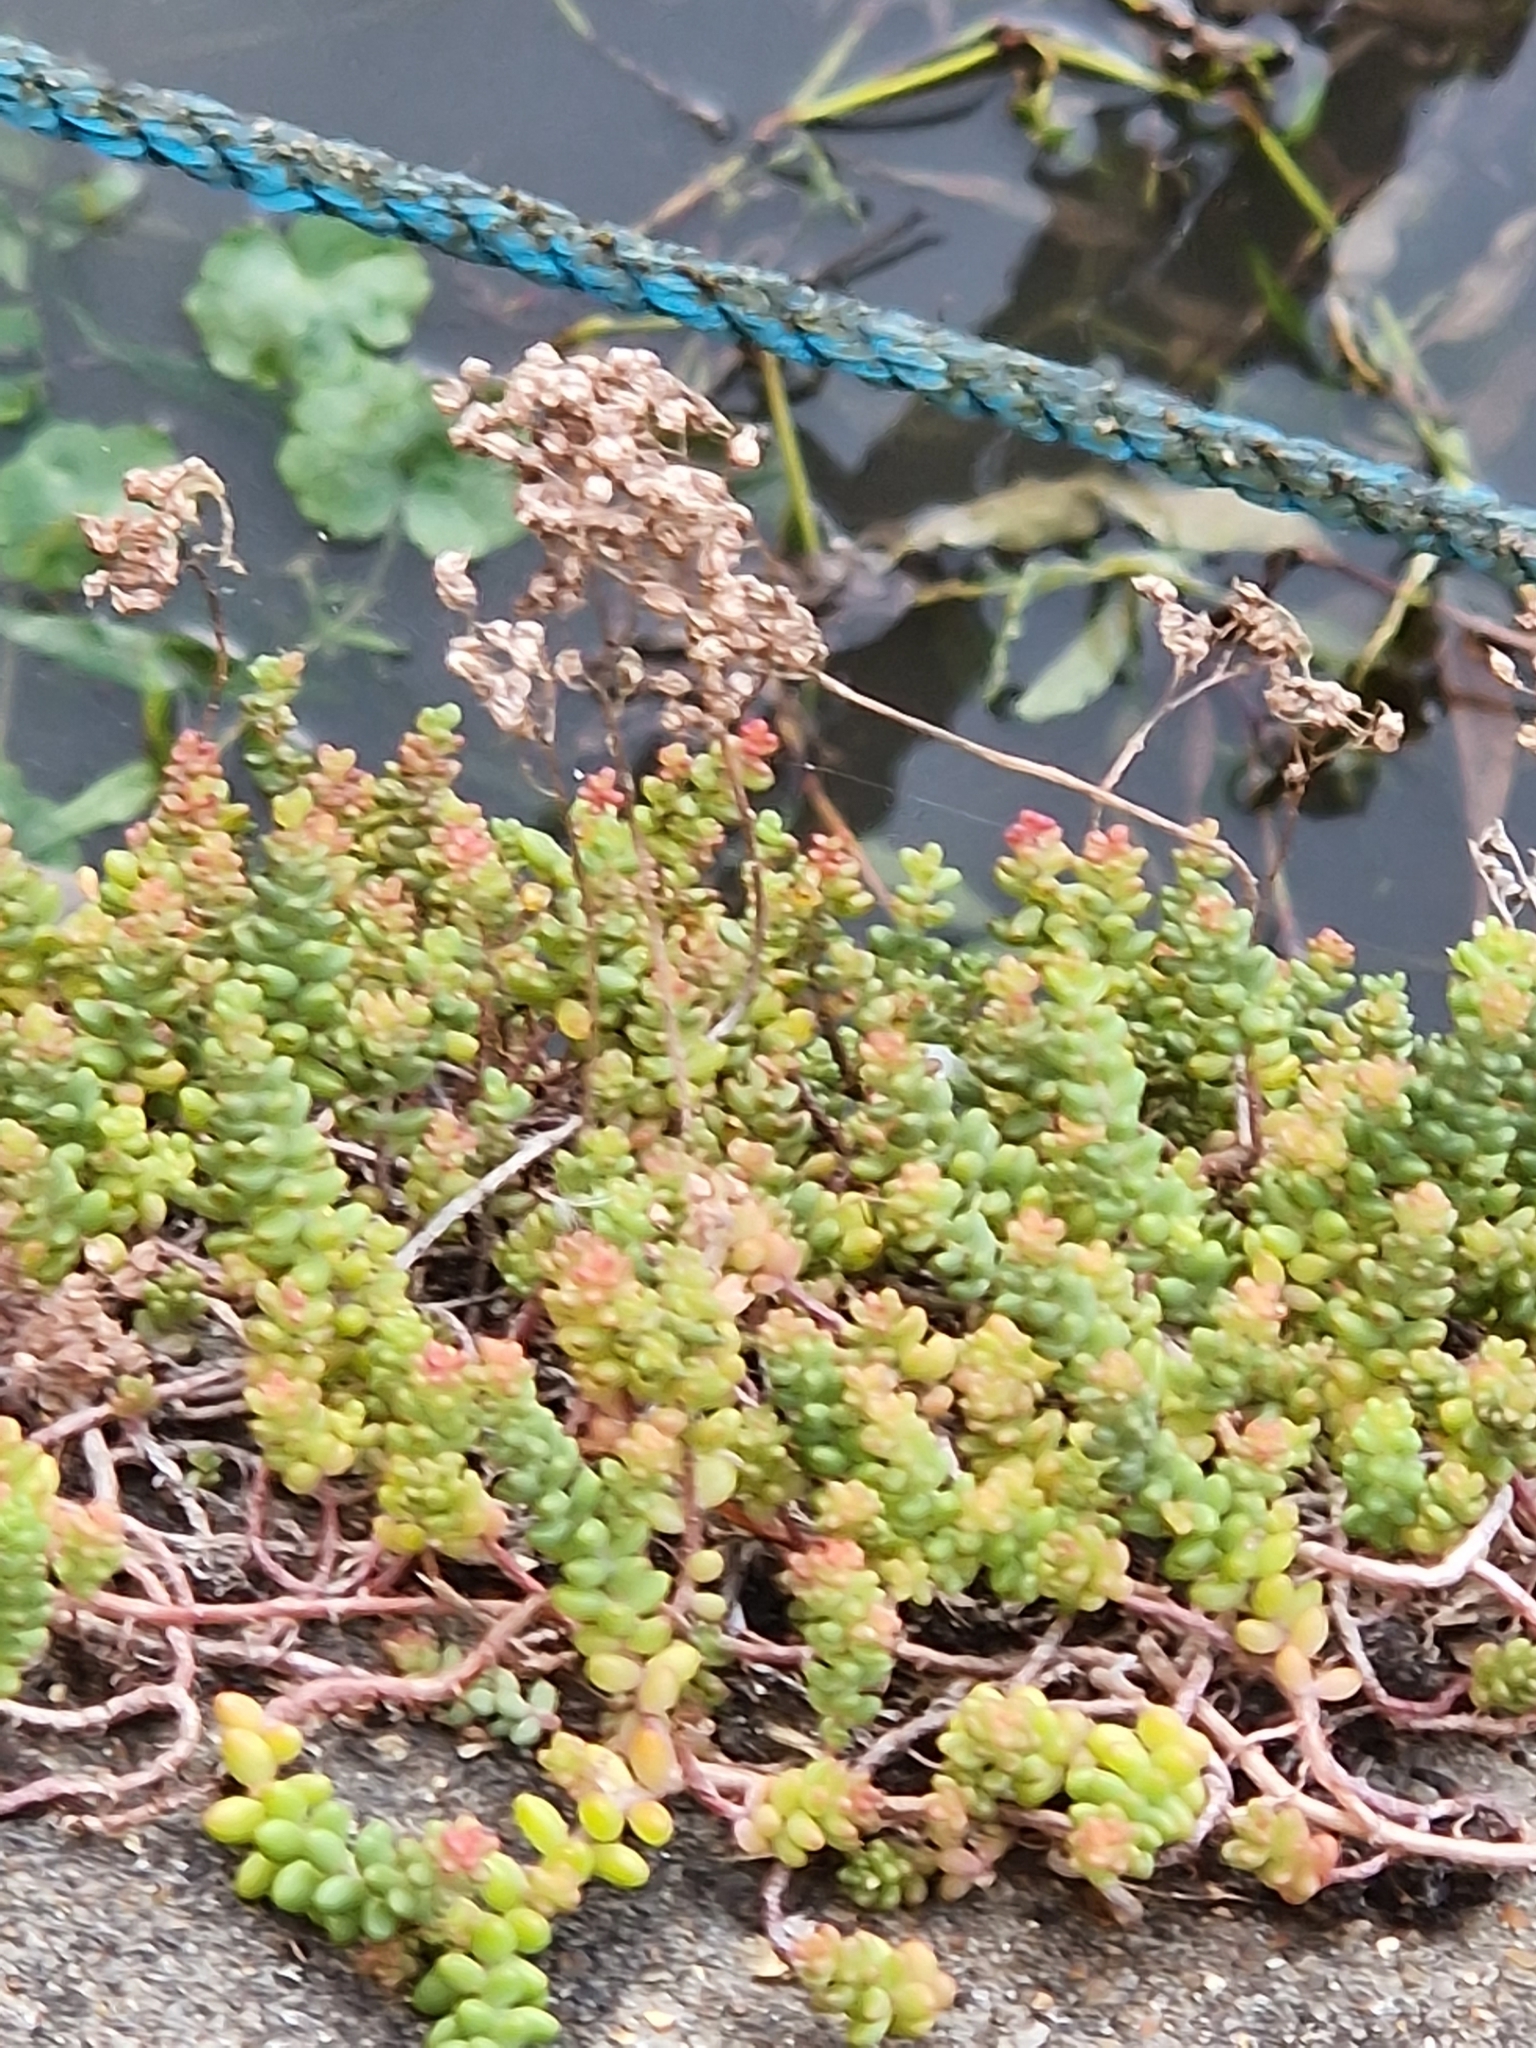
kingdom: Plantae
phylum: Tracheophyta
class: Magnoliopsida
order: Saxifragales
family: Crassulaceae
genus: Sedum
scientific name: Sedum album
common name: White stonecrop
